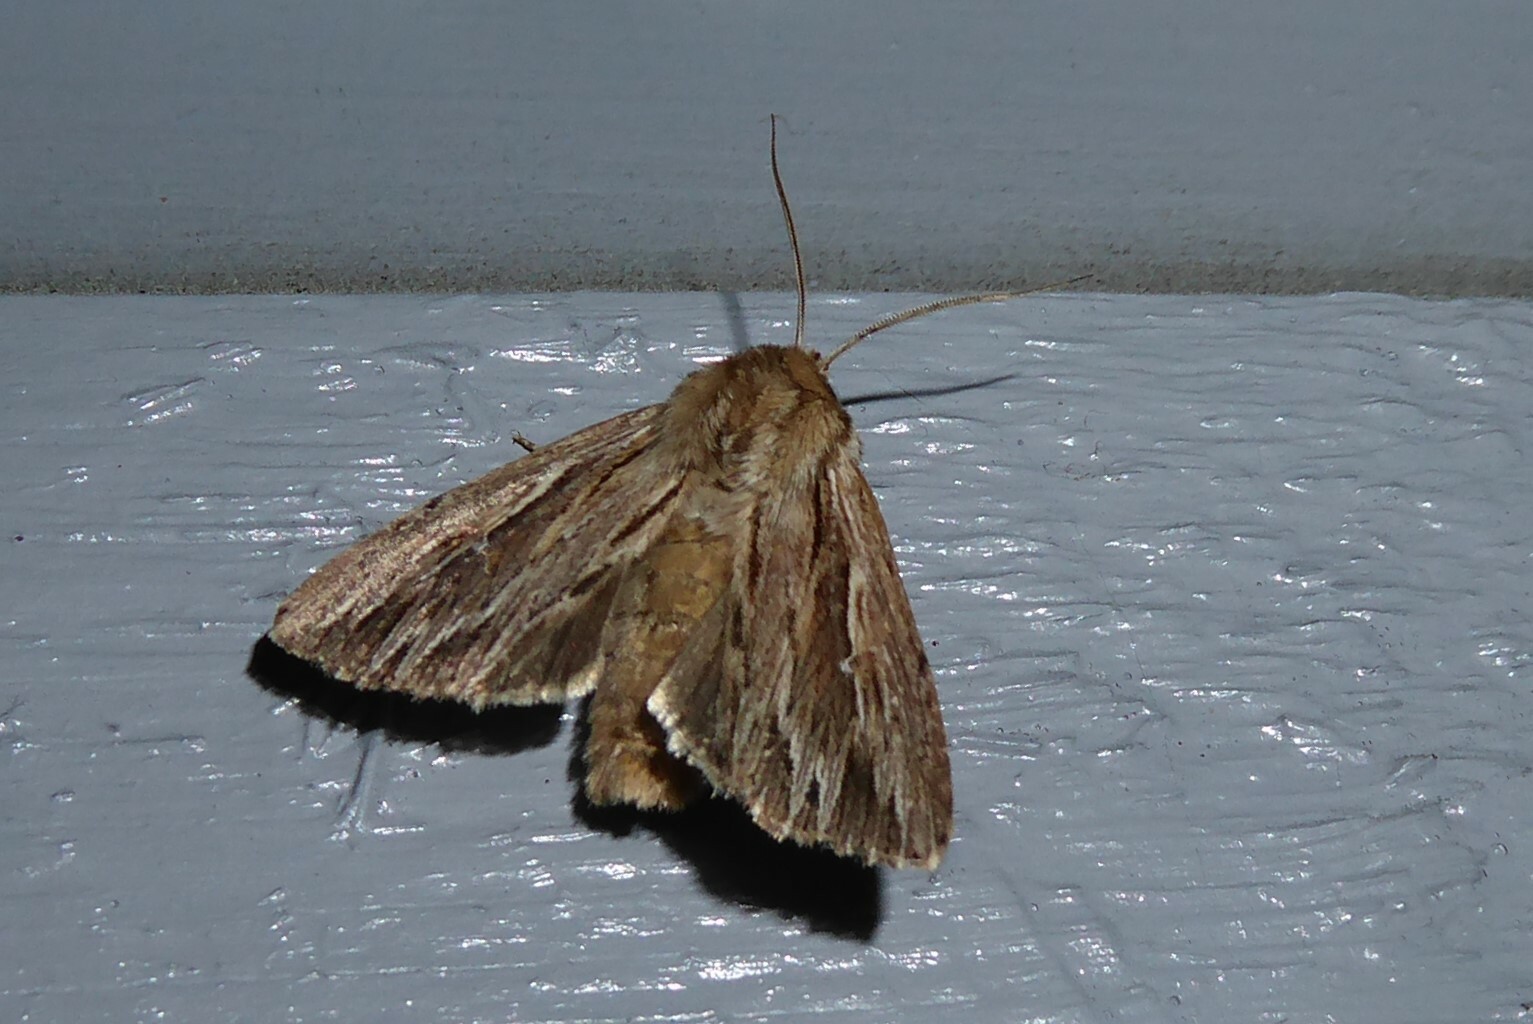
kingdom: Animalia
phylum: Arthropoda
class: Insecta
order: Lepidoptera
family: Noctuidae
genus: Persectania
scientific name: Persectania aversa
